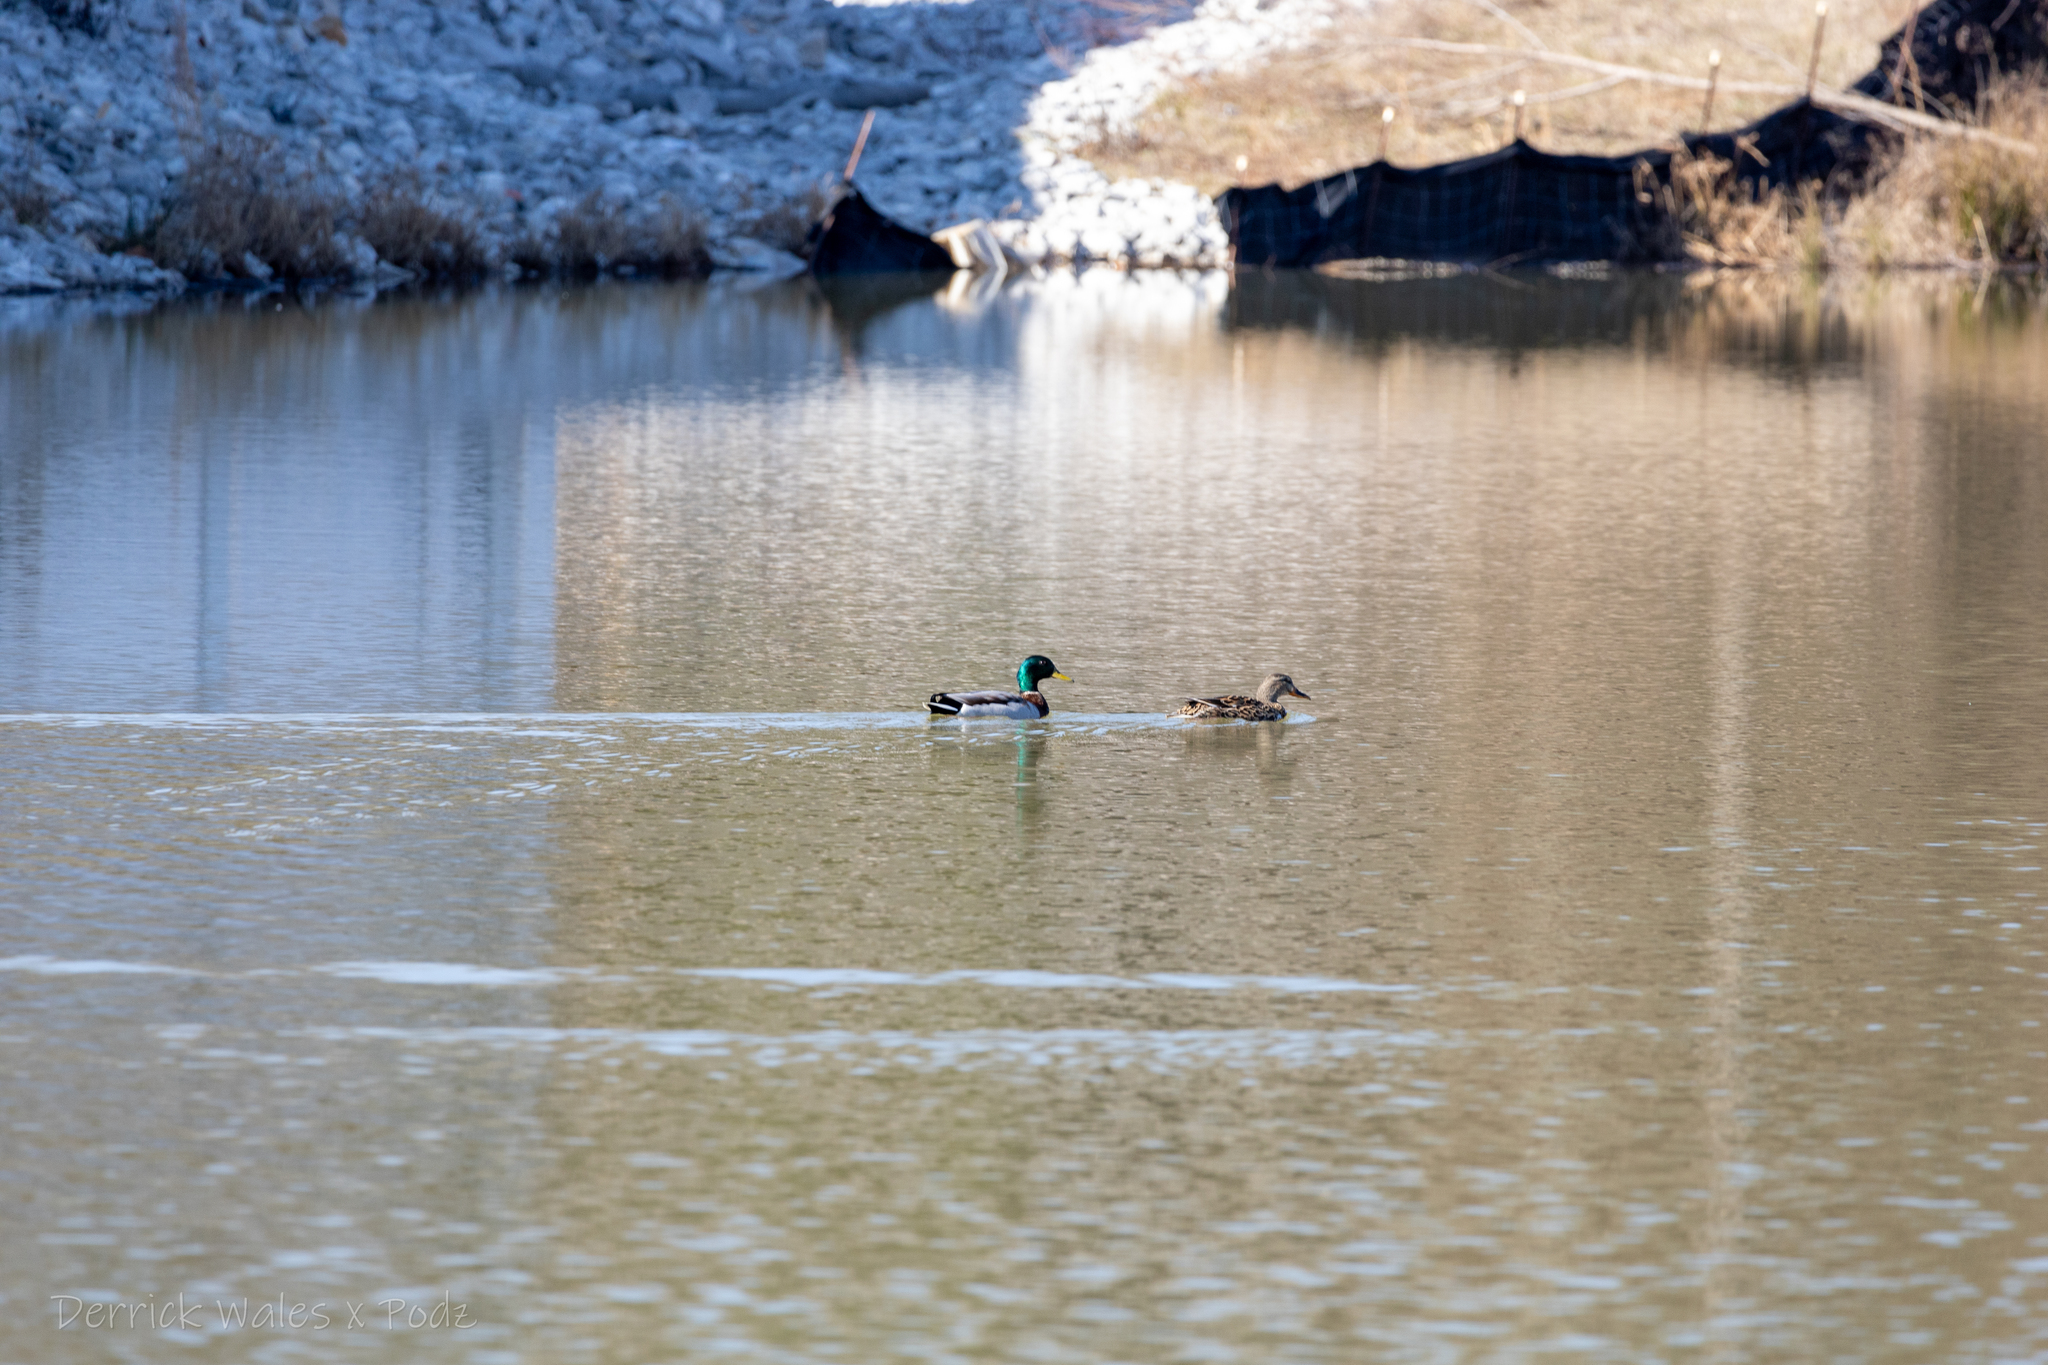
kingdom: Animalia
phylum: Chordata
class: Aves
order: Anseriformes
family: Anatidae
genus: Anas
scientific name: Anas platyrhynchos
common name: Mallard
